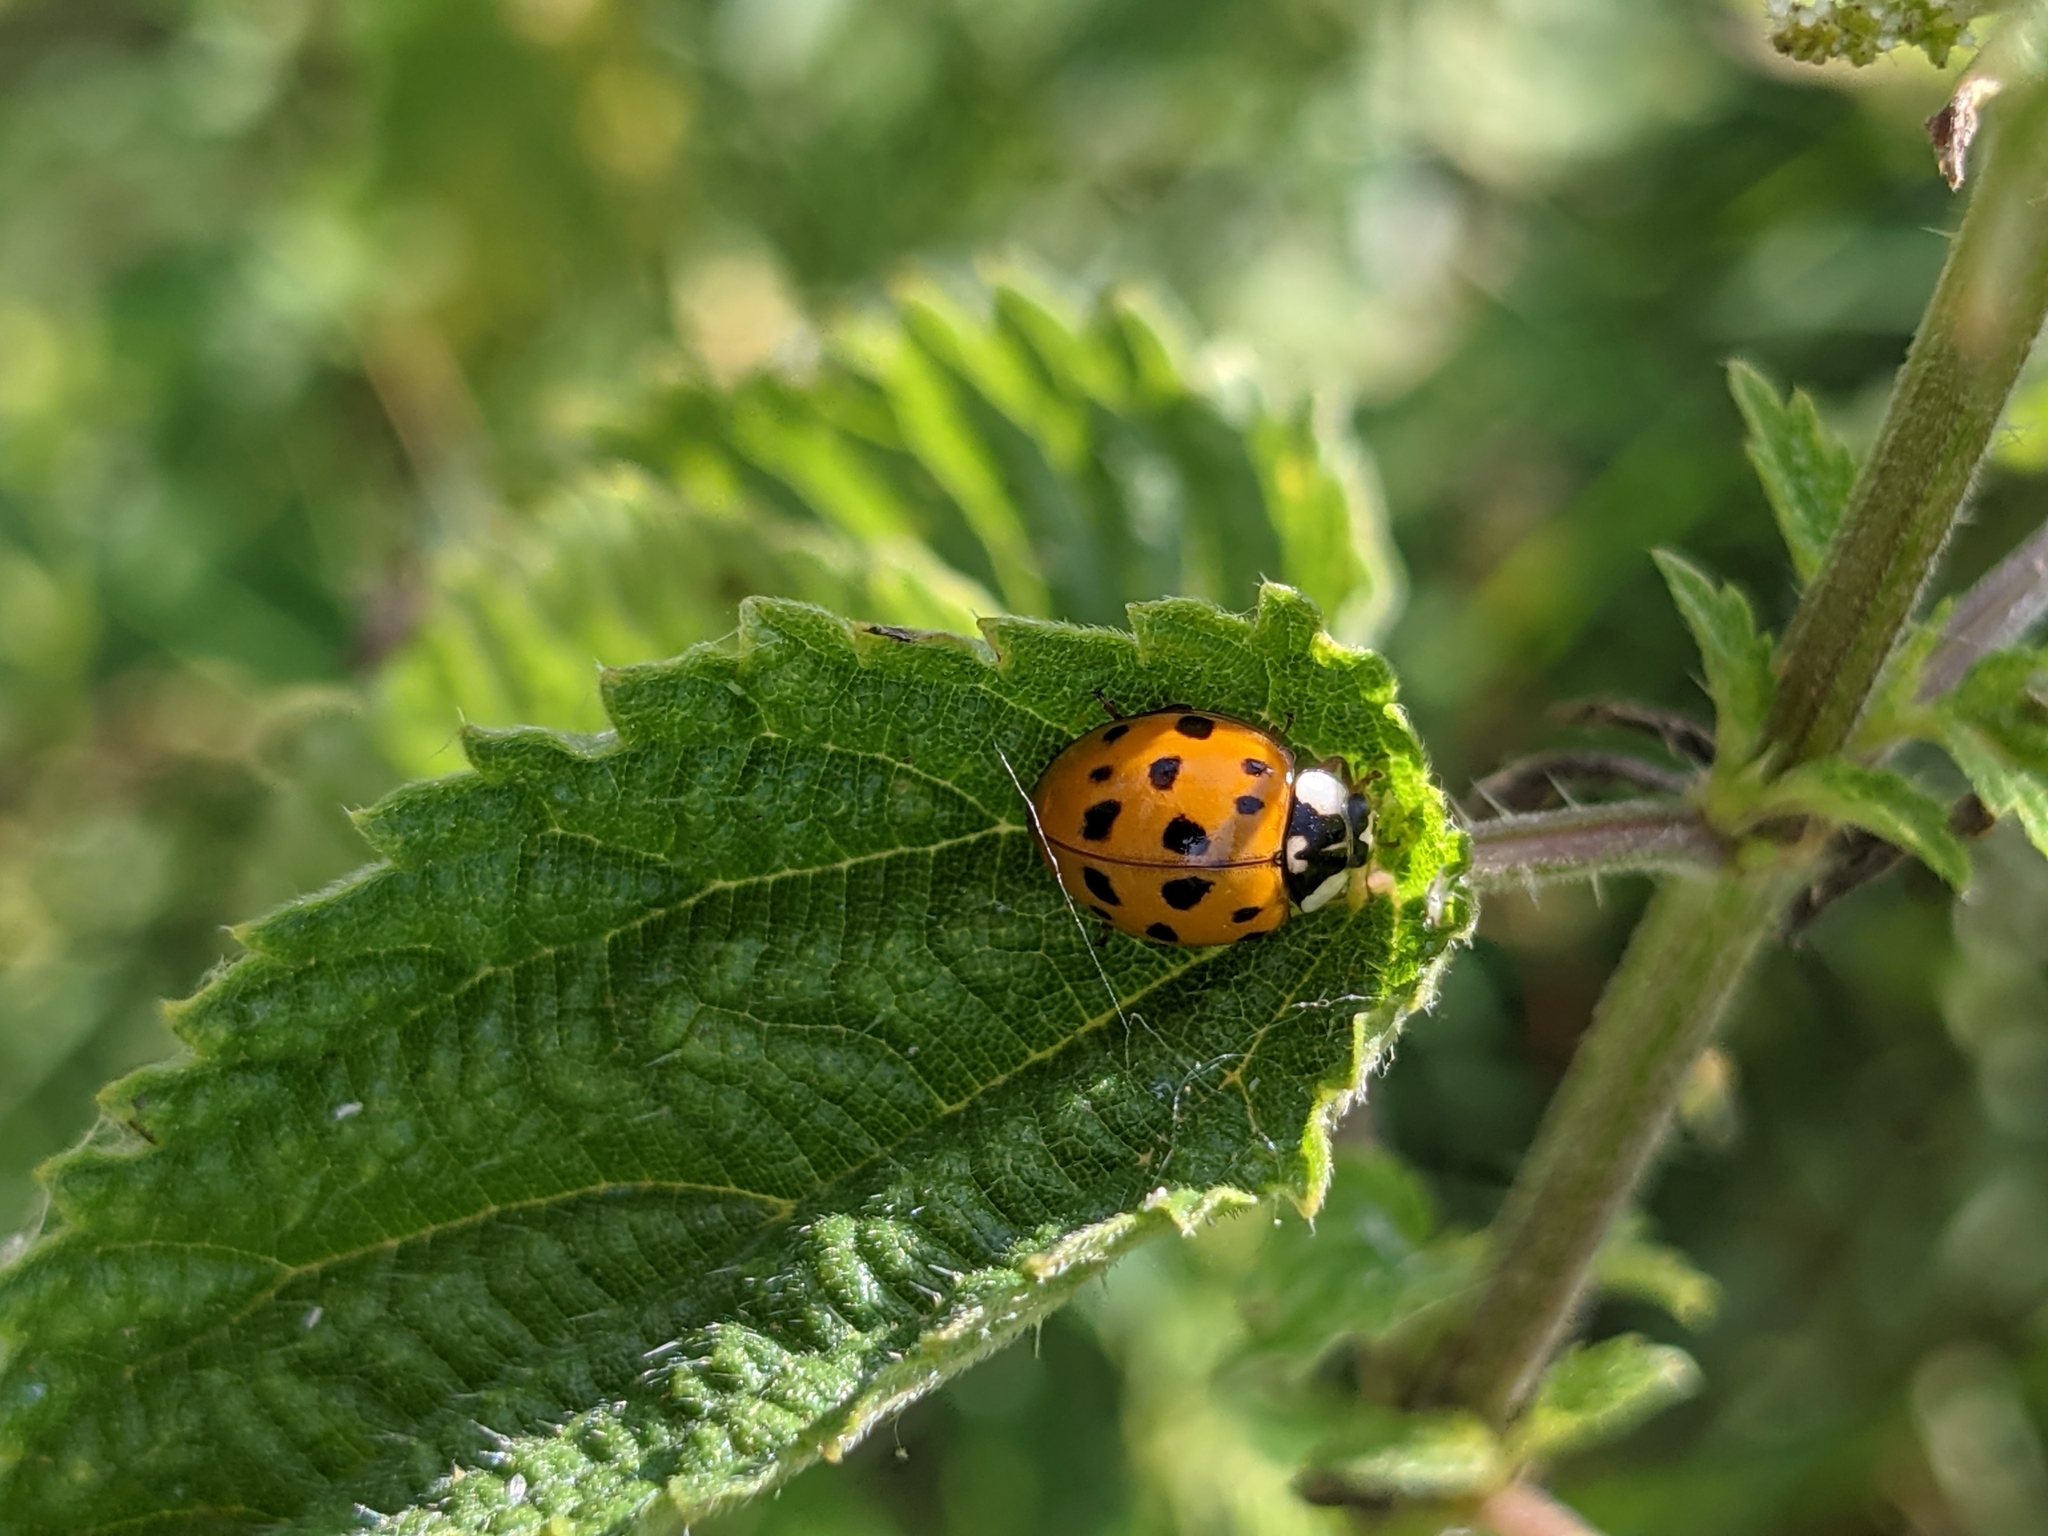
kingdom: Animalia
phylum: Arthropoda
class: Insecta
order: Coleoptera
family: Coccinellidae
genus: Harmonia
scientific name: Harmonia axyridis
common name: Harlequin ladybird
